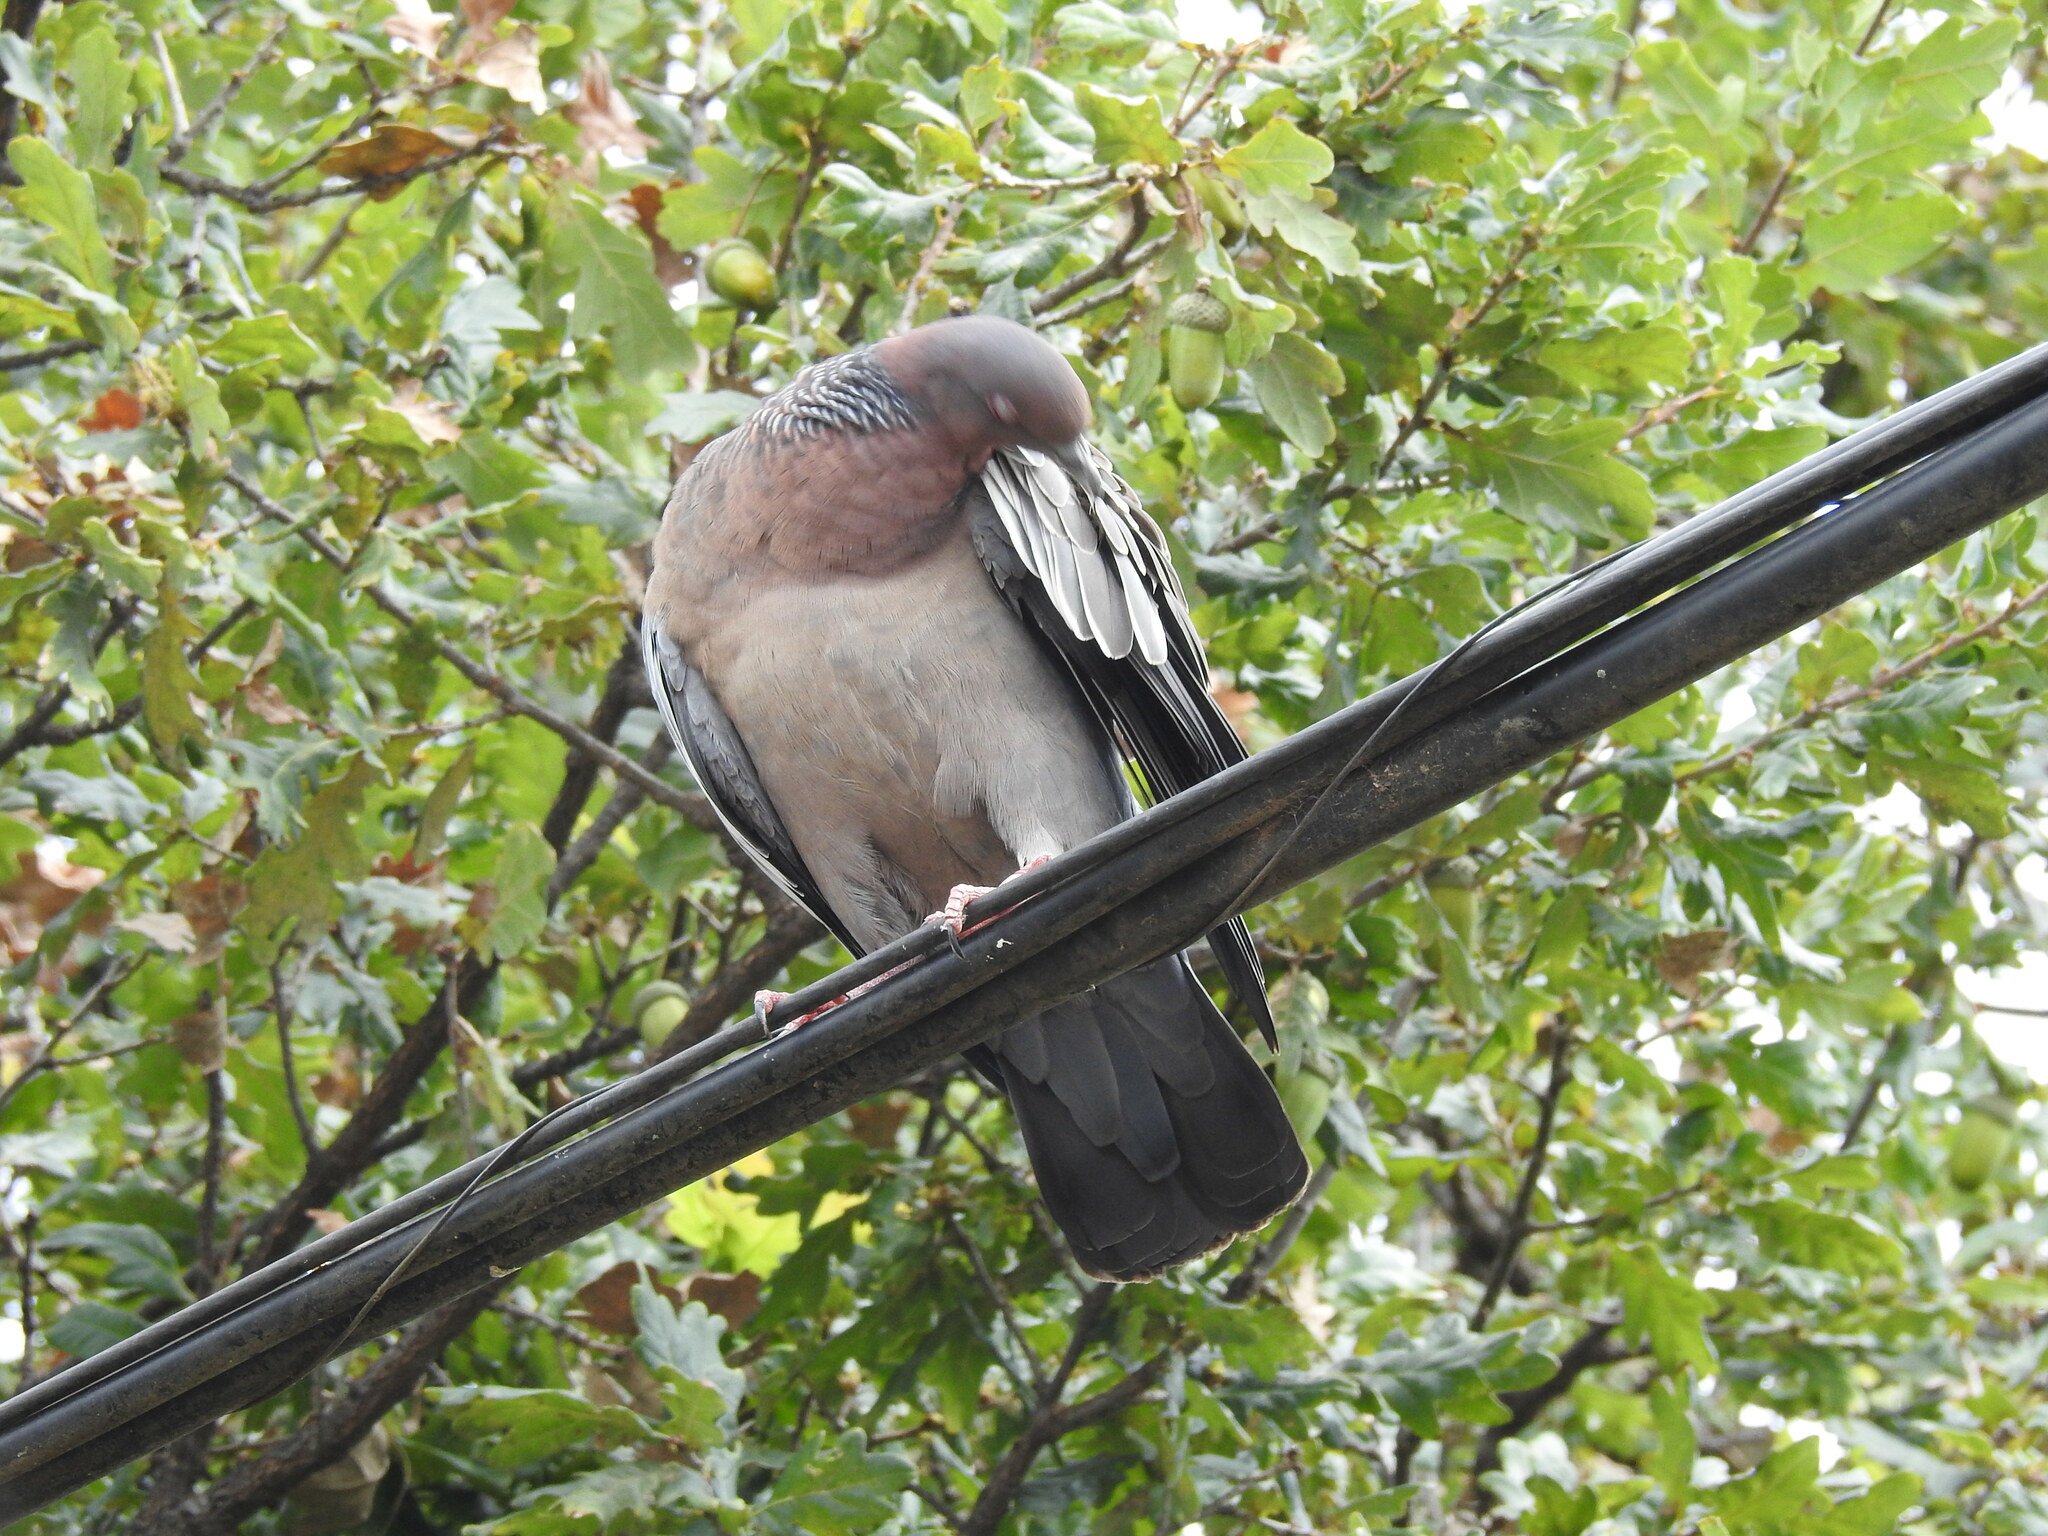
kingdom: Animalia
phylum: Chordata
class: Aves
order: Columbiformes
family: Columbidae
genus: Patagioenas
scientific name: Patagioenas picazuro
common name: Picazuro pigeon
